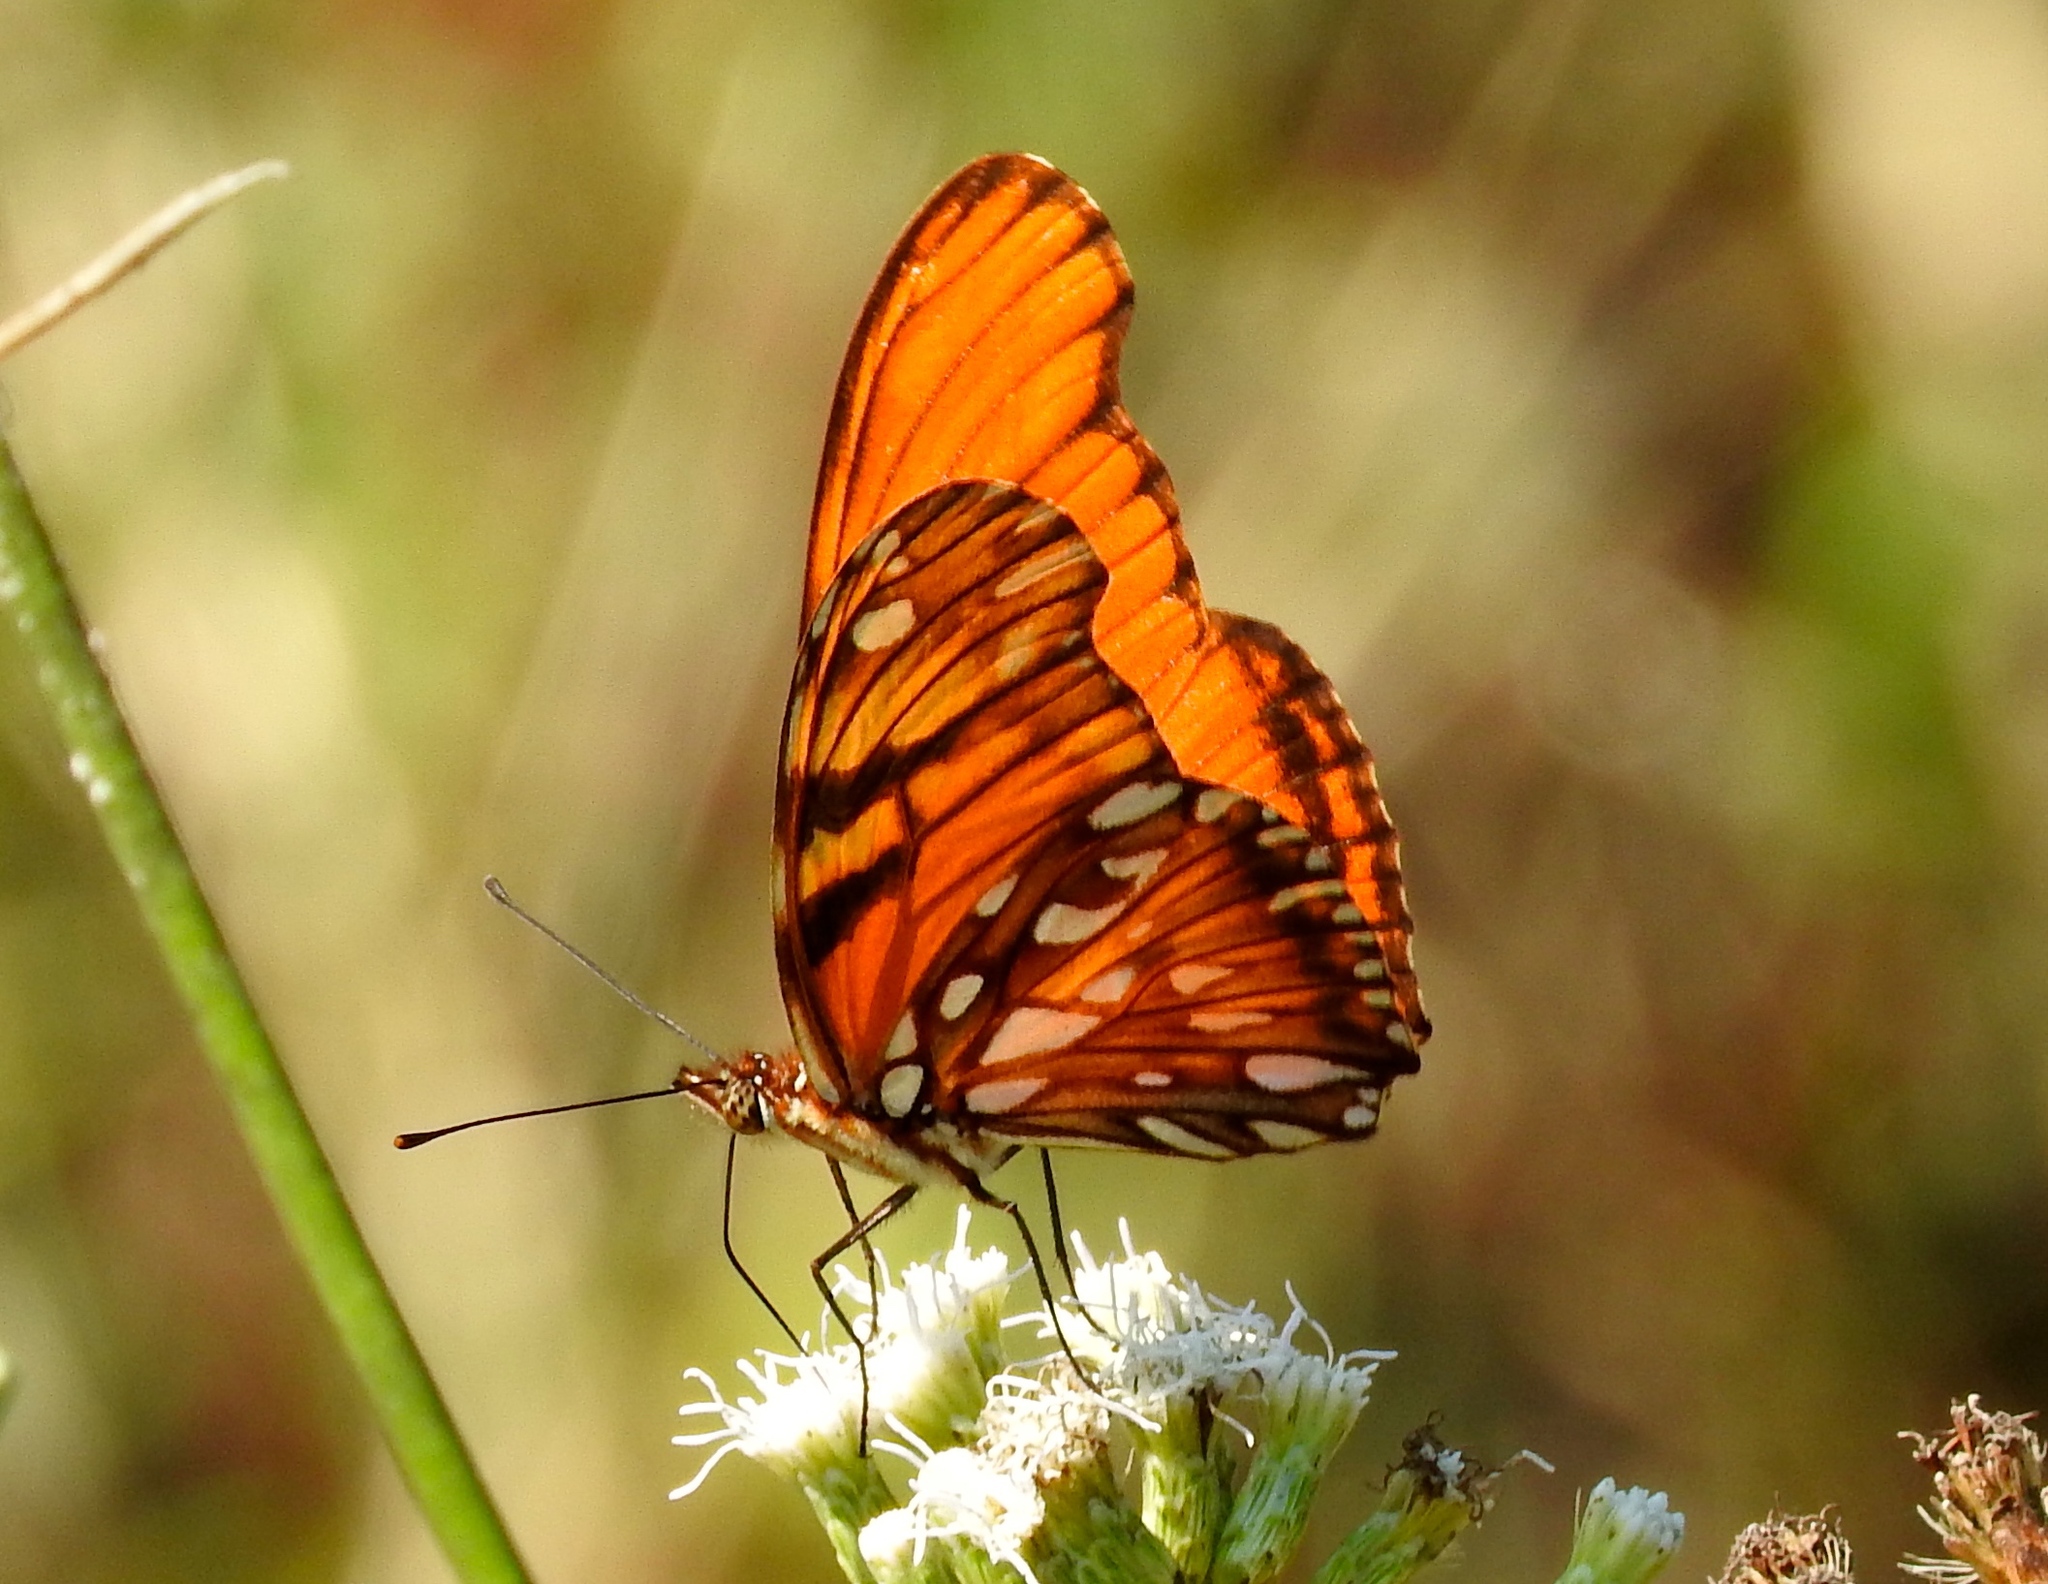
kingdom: Animalia
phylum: Arthropoda
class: Insecta
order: Lepidoptera
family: Nymphalidae
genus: Dione
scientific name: Dione juno
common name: Juno silverspot
